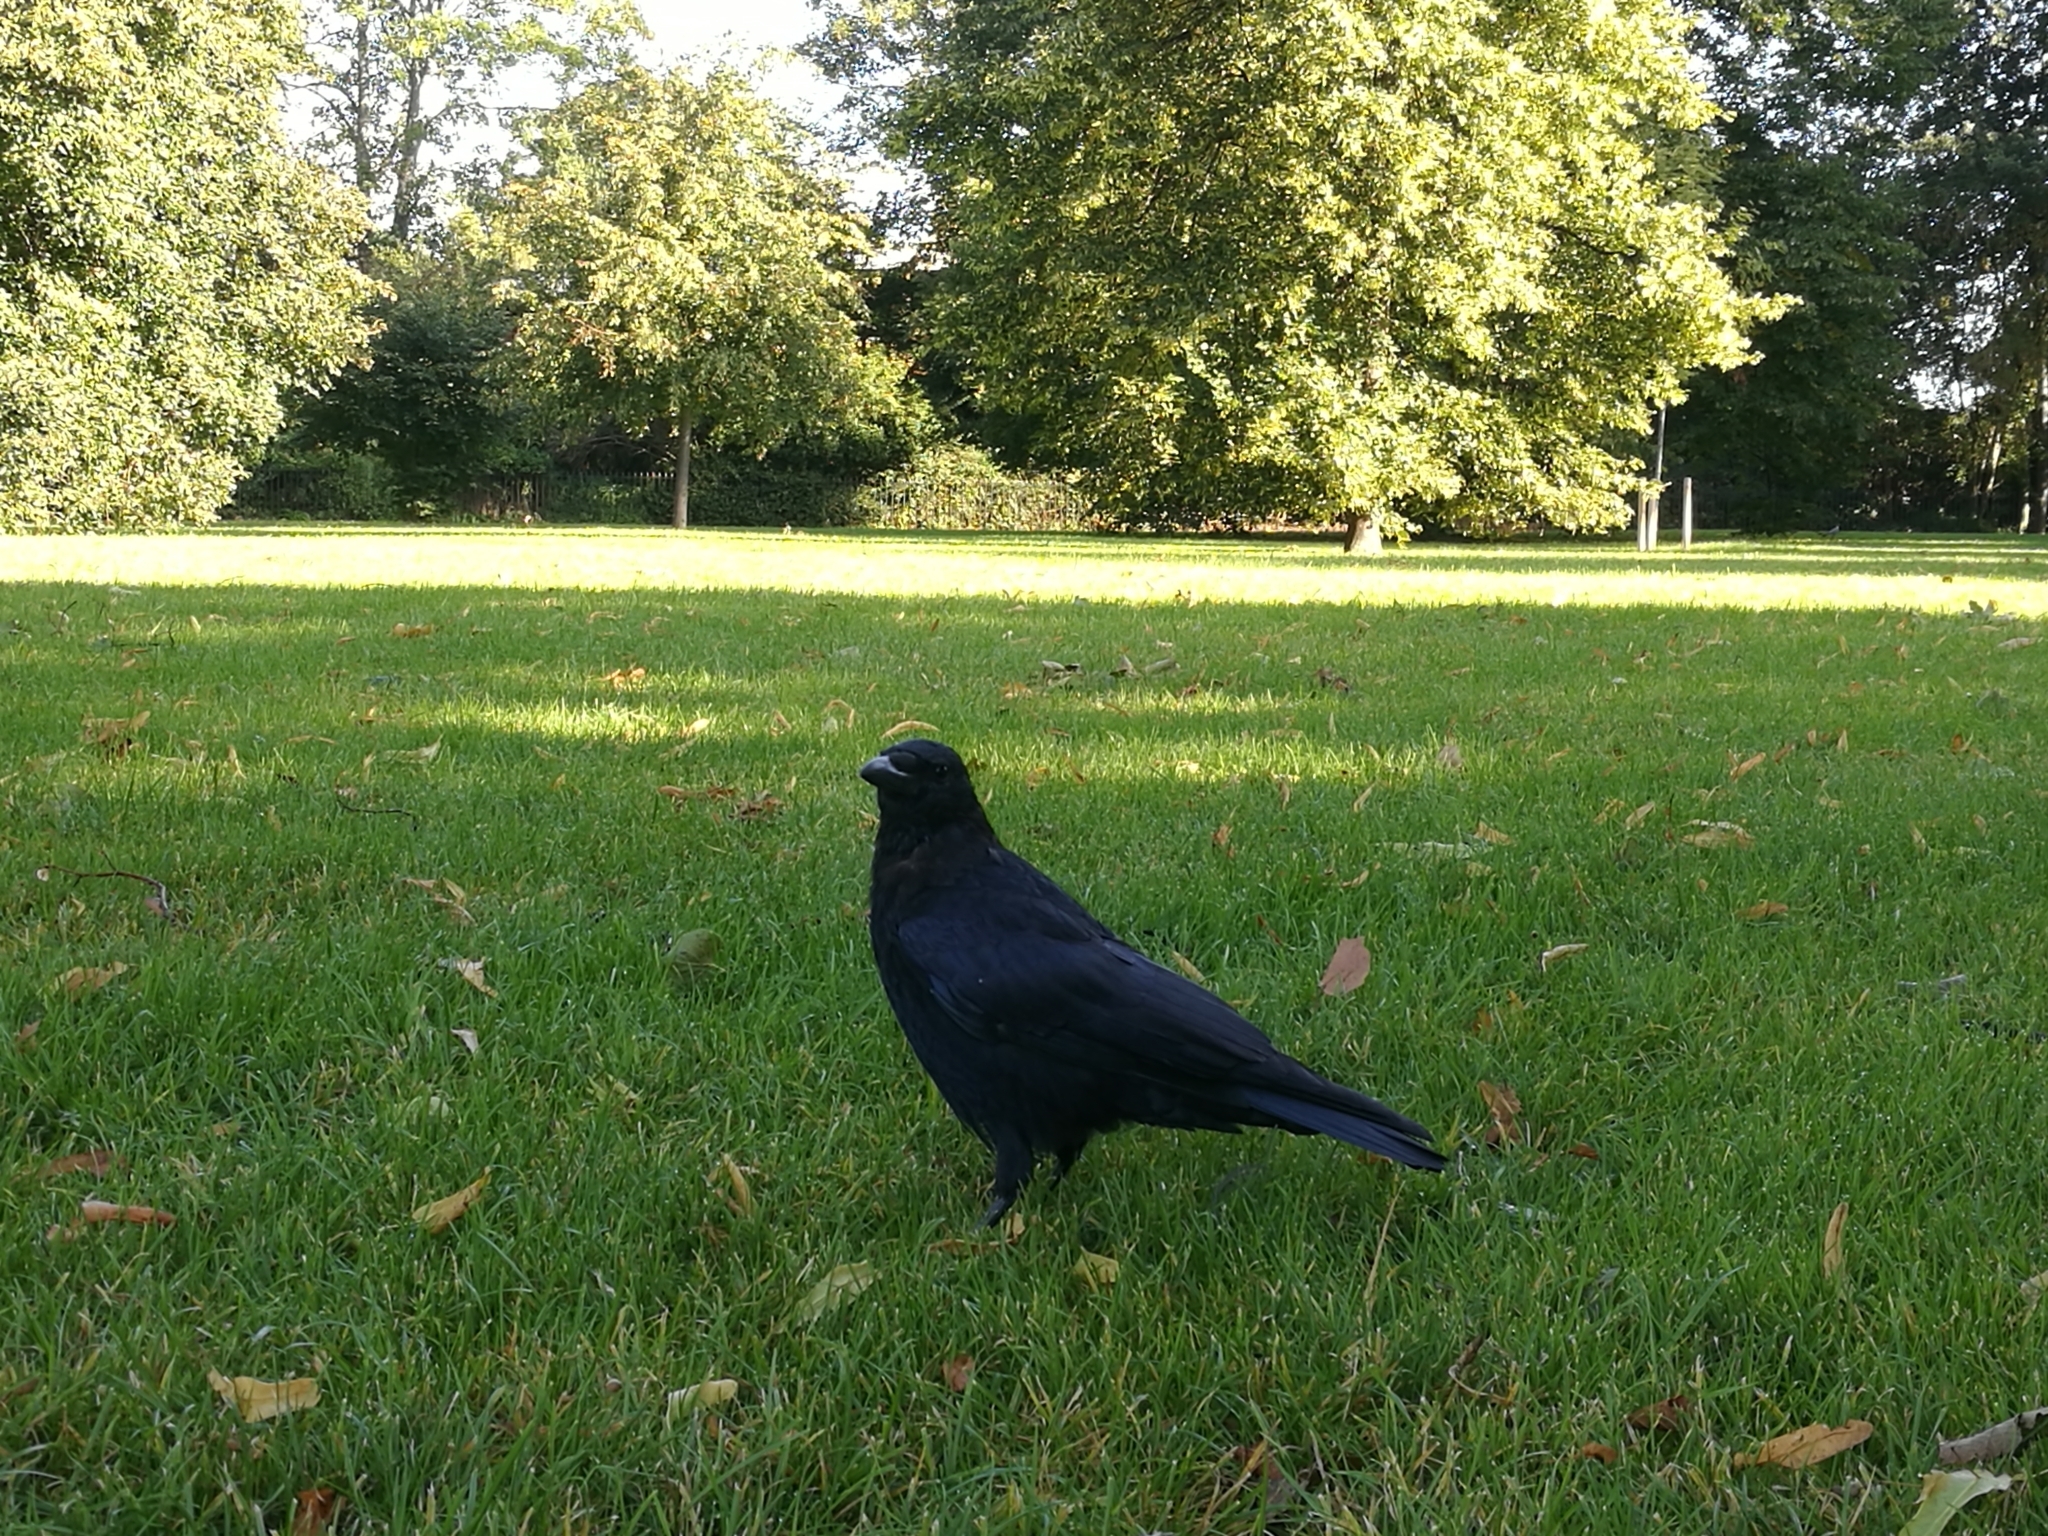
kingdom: Animalia
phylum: Chordata
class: Aves
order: Passeriformes
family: Corvidae
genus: Corvus
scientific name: Corvus corone
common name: Carrion crow
